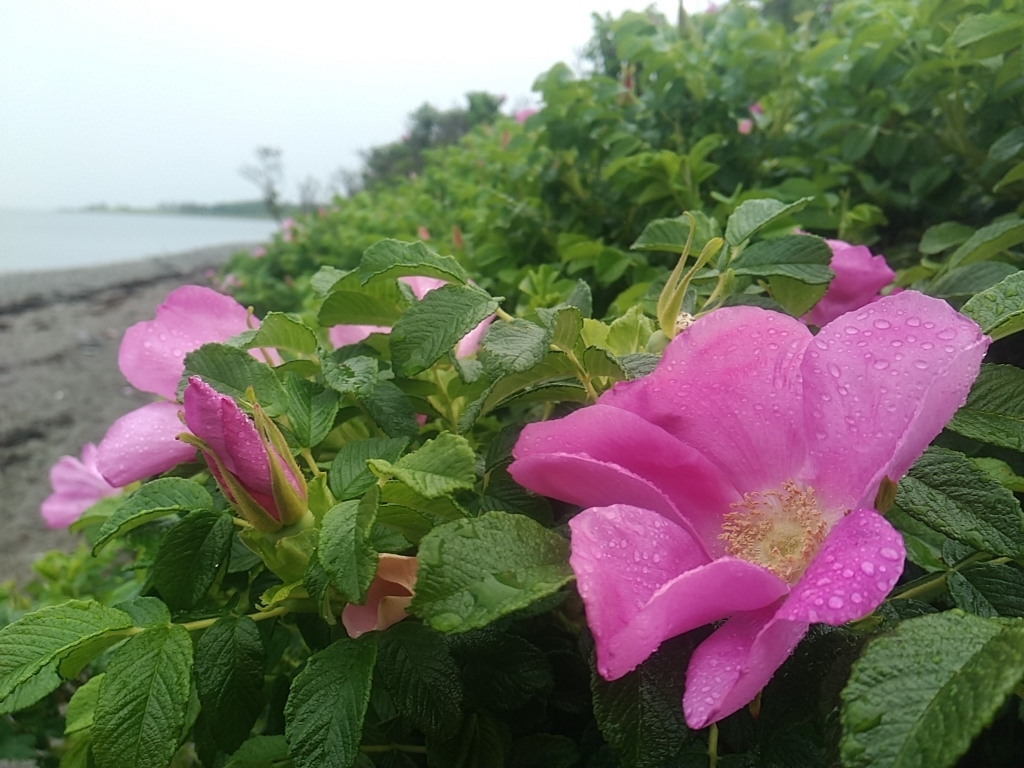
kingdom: Plantae
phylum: Tracheophyta
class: Magnoliopsida
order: Rosales
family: Rosaceae
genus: Rosa
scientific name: Rosa rugosa
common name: Japanese rose
